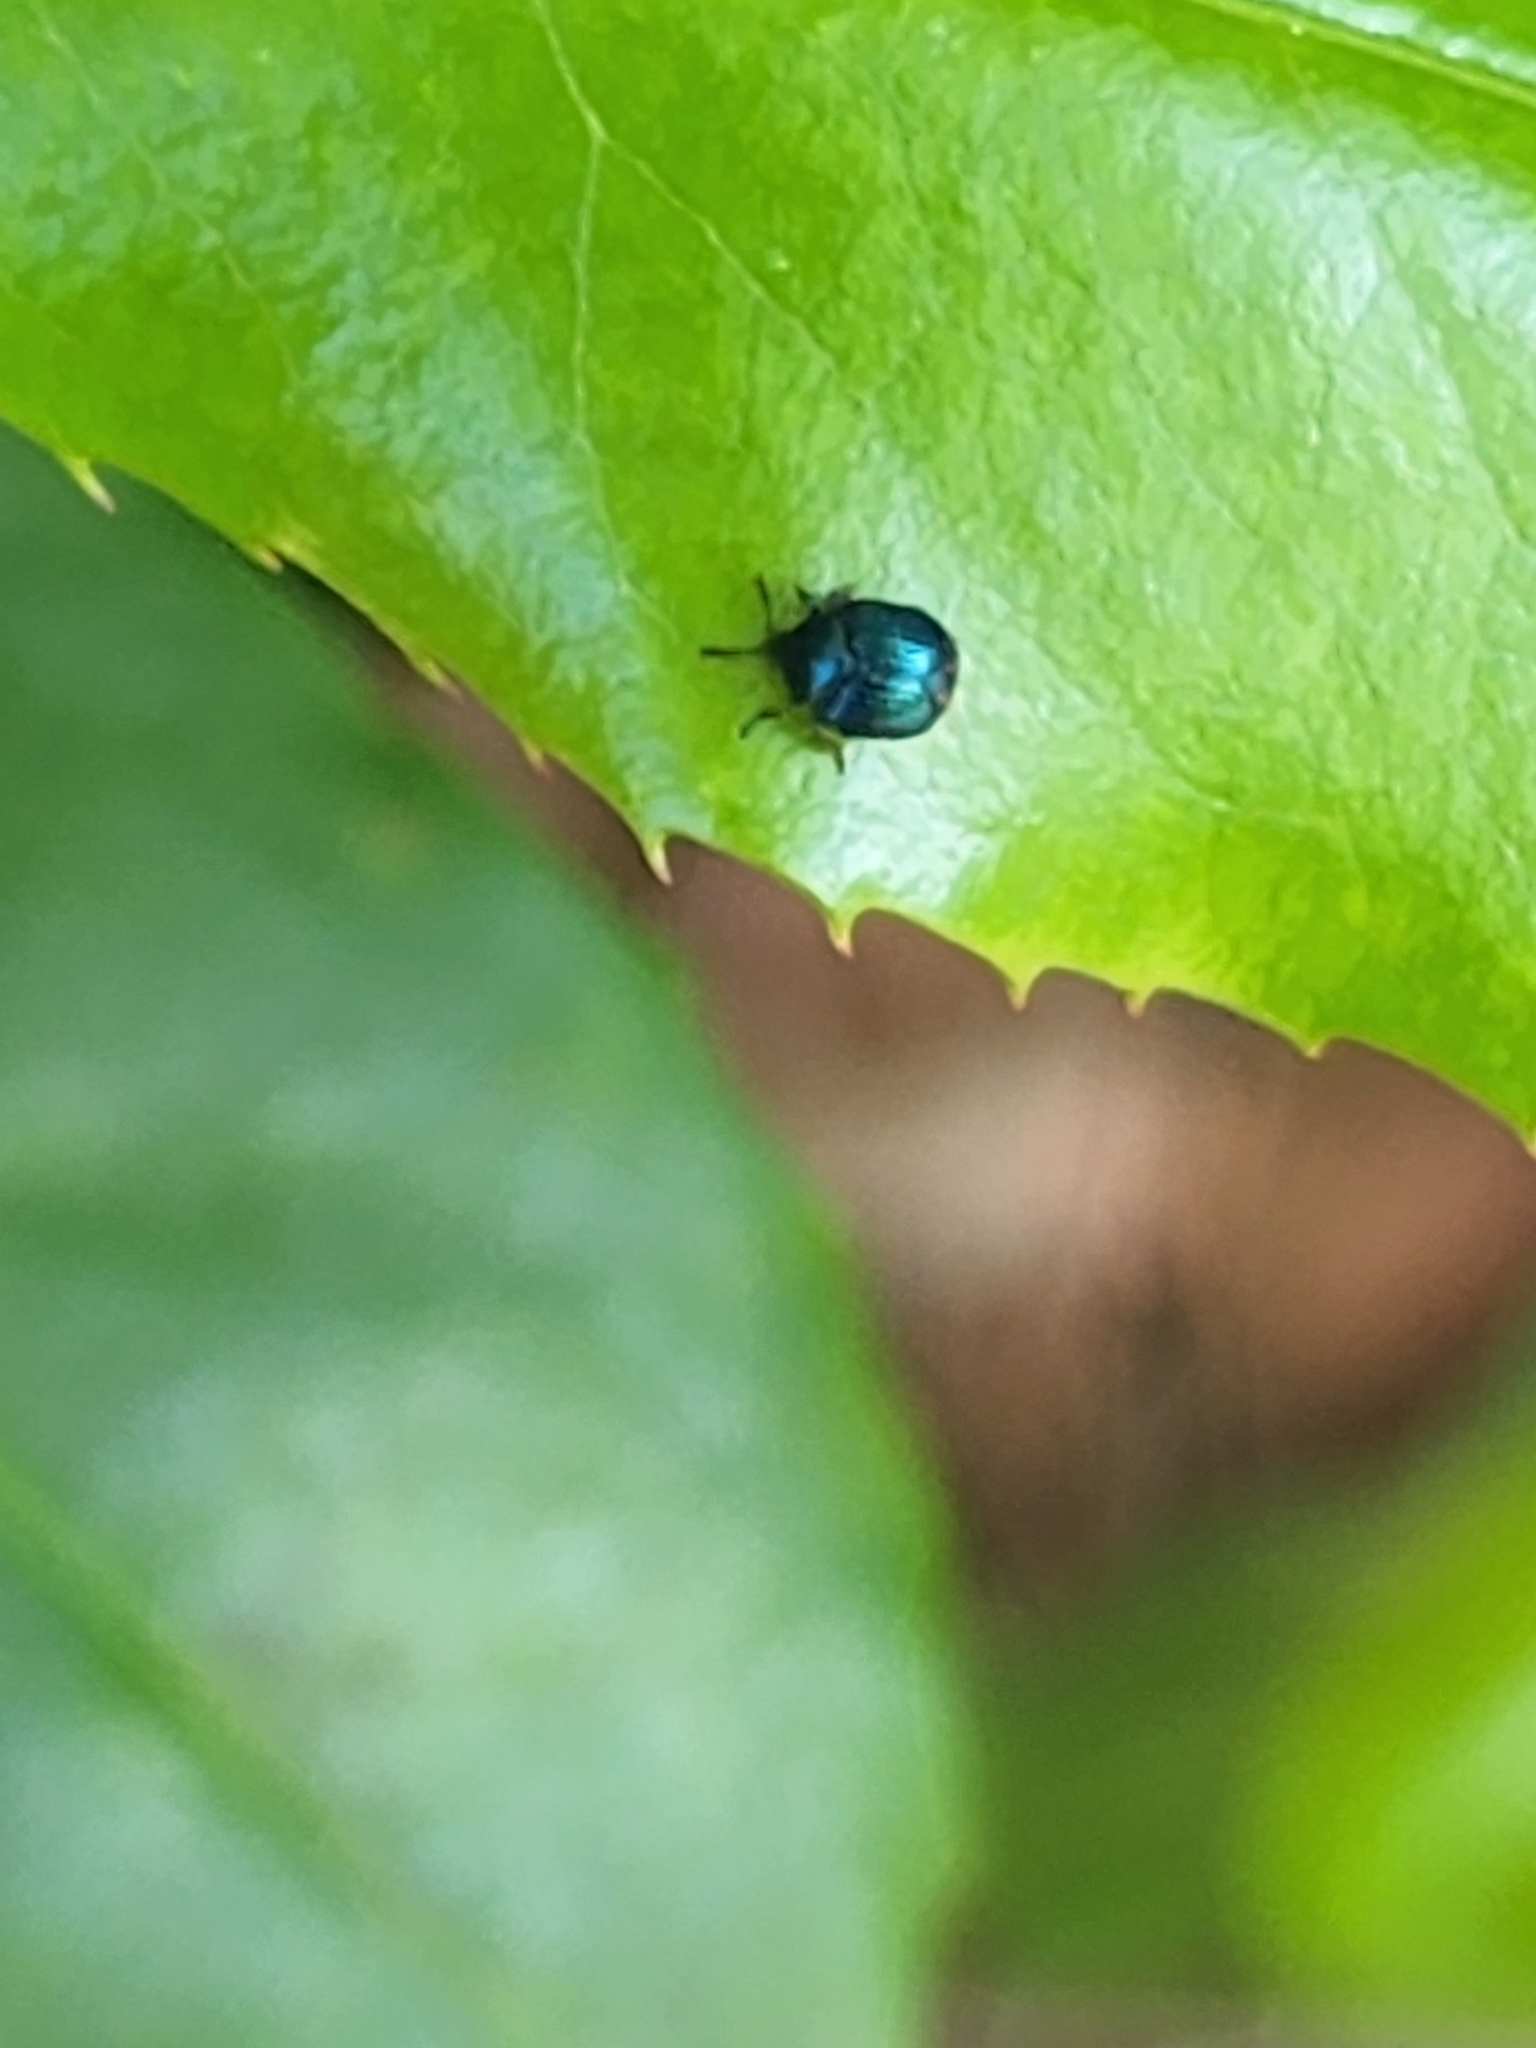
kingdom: Animalia
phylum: Arthropoda
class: Insecta
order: Coleoptera
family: Attelabidae
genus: Pterocolus
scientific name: Pterocolus ovatus
